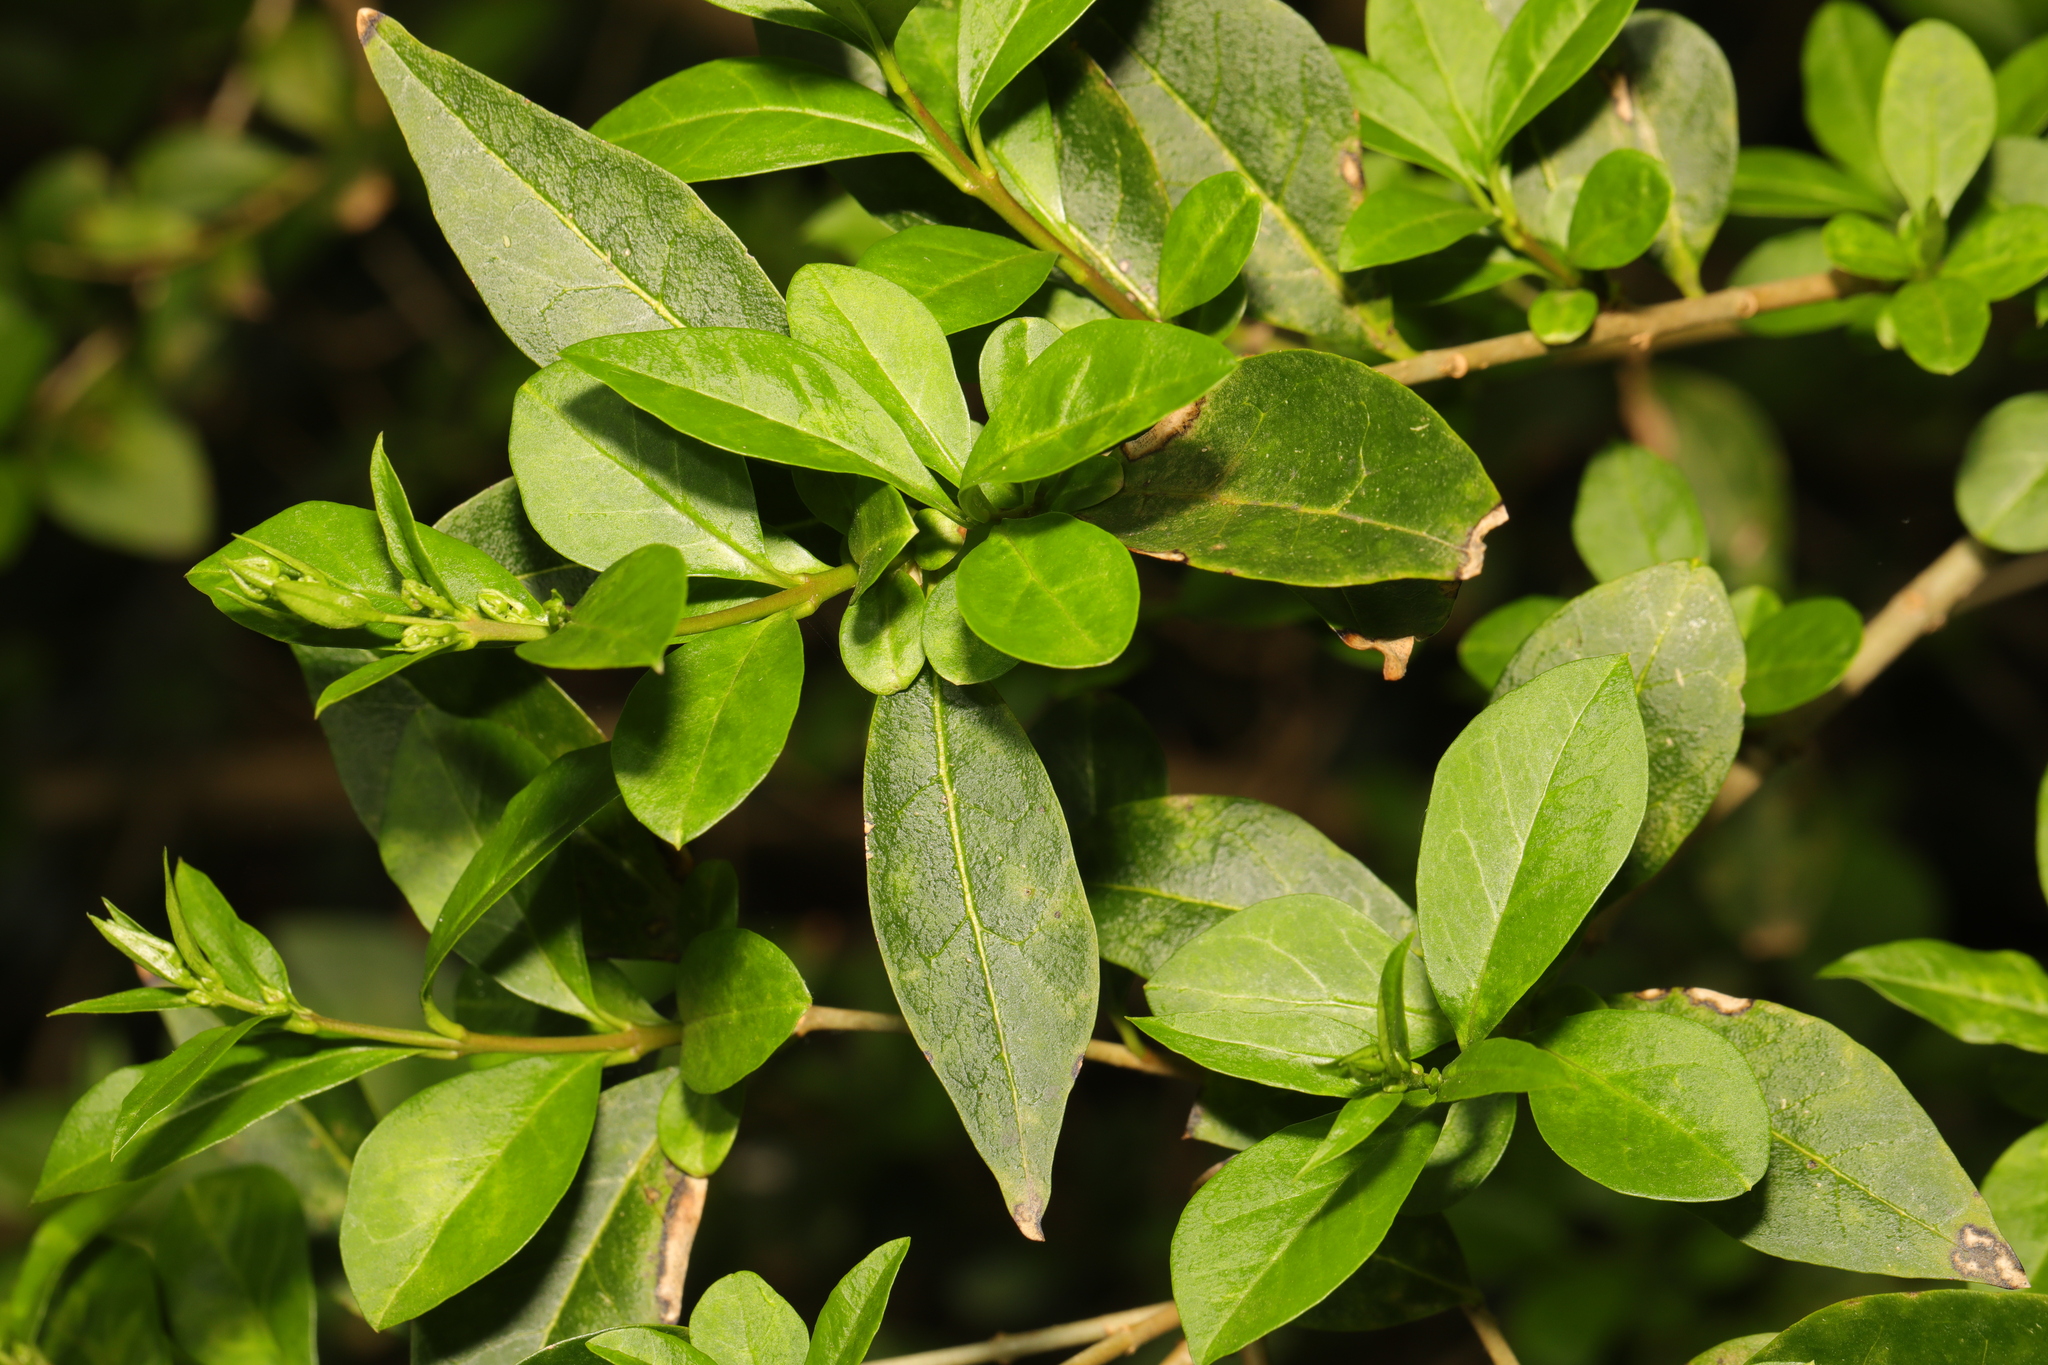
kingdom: Plantae
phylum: Tracheophyta
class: Magnoliopsida
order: Lamiales
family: Oleaceae
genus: Ligustrum
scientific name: Ligustrum ovalifolium
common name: California privet
